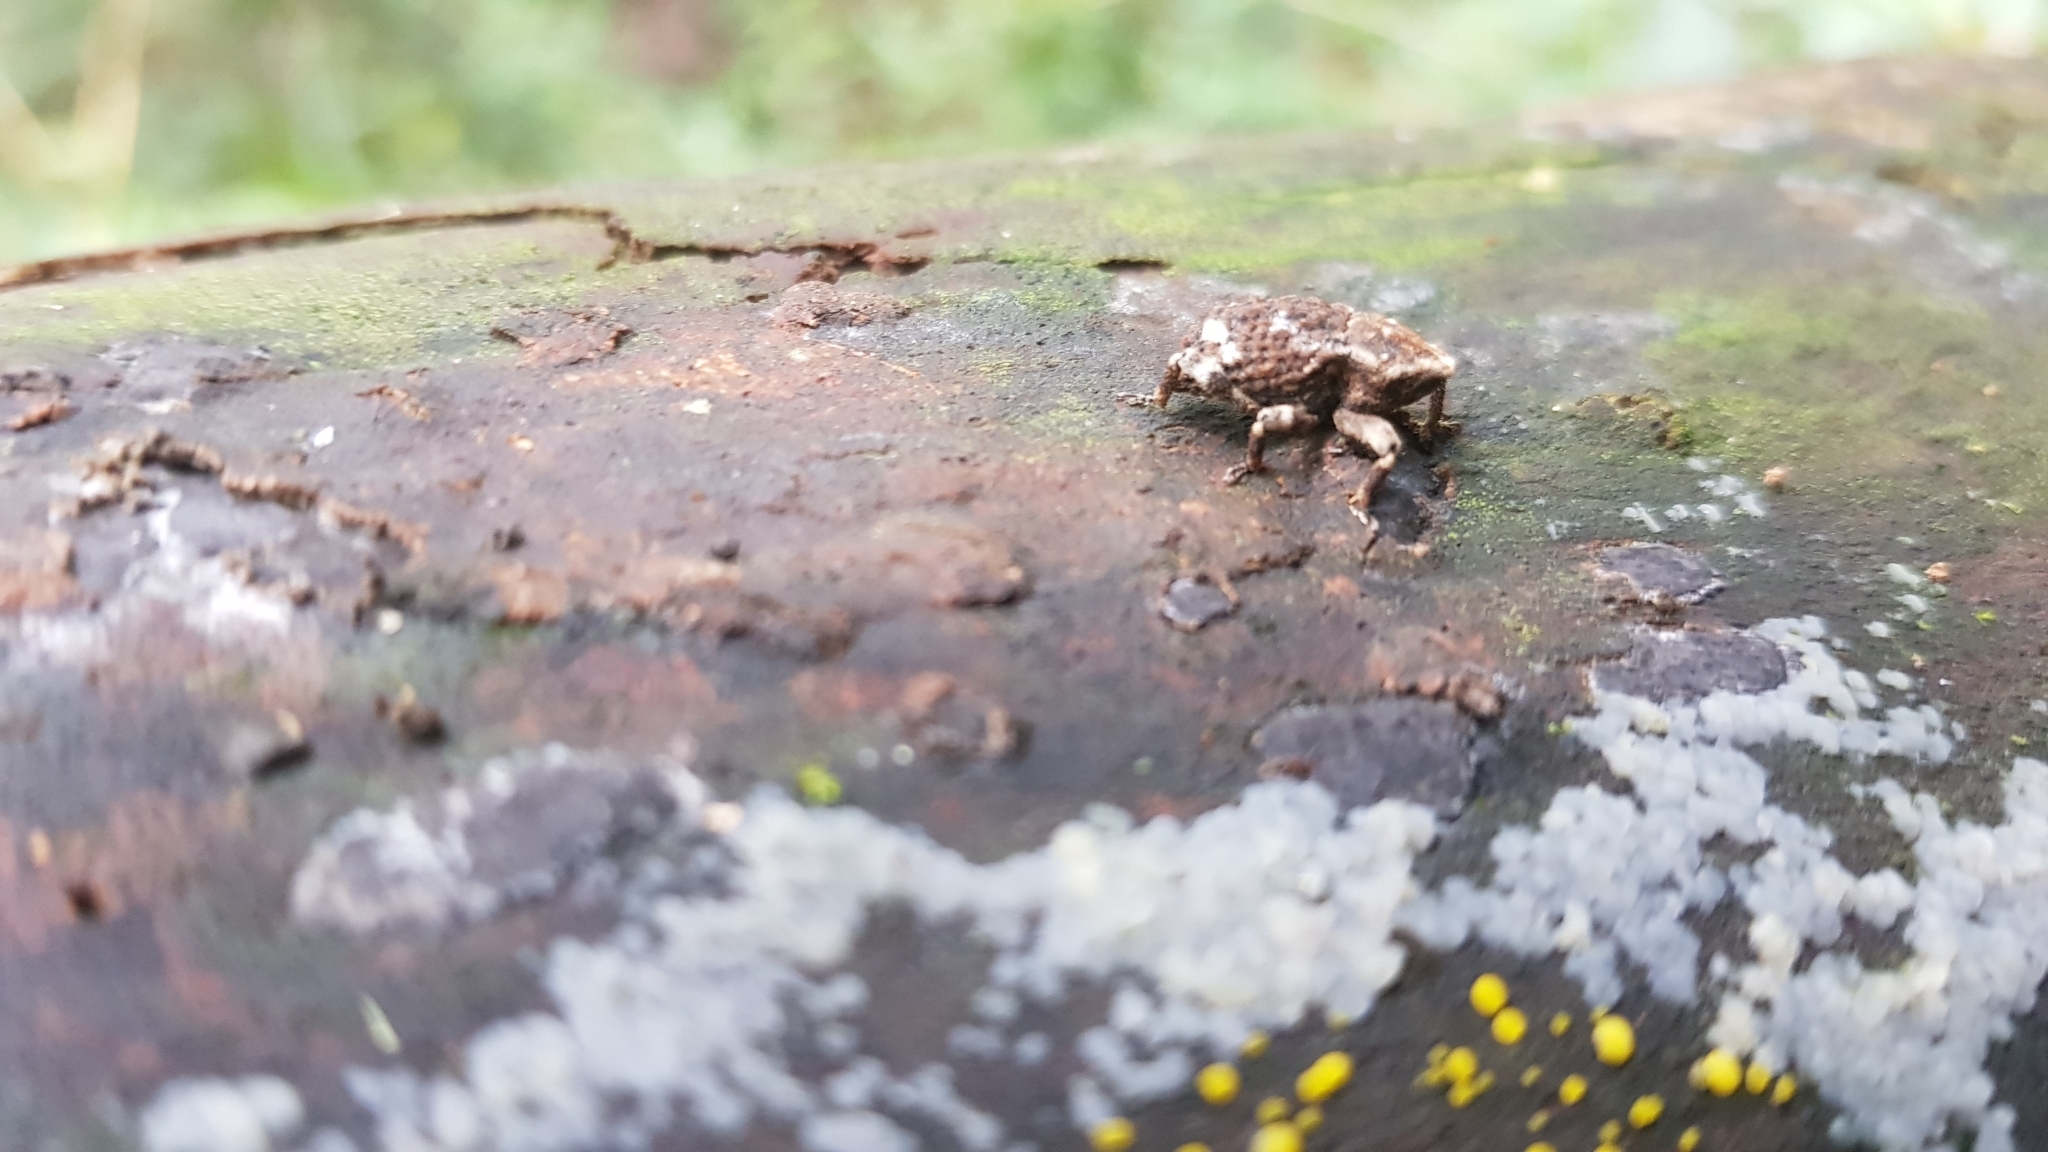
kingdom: Animalia
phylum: Arthropoda
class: Insecta
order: Coleoptera
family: Curculionidae
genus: Poropterus
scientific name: Poropterus bisignatus
